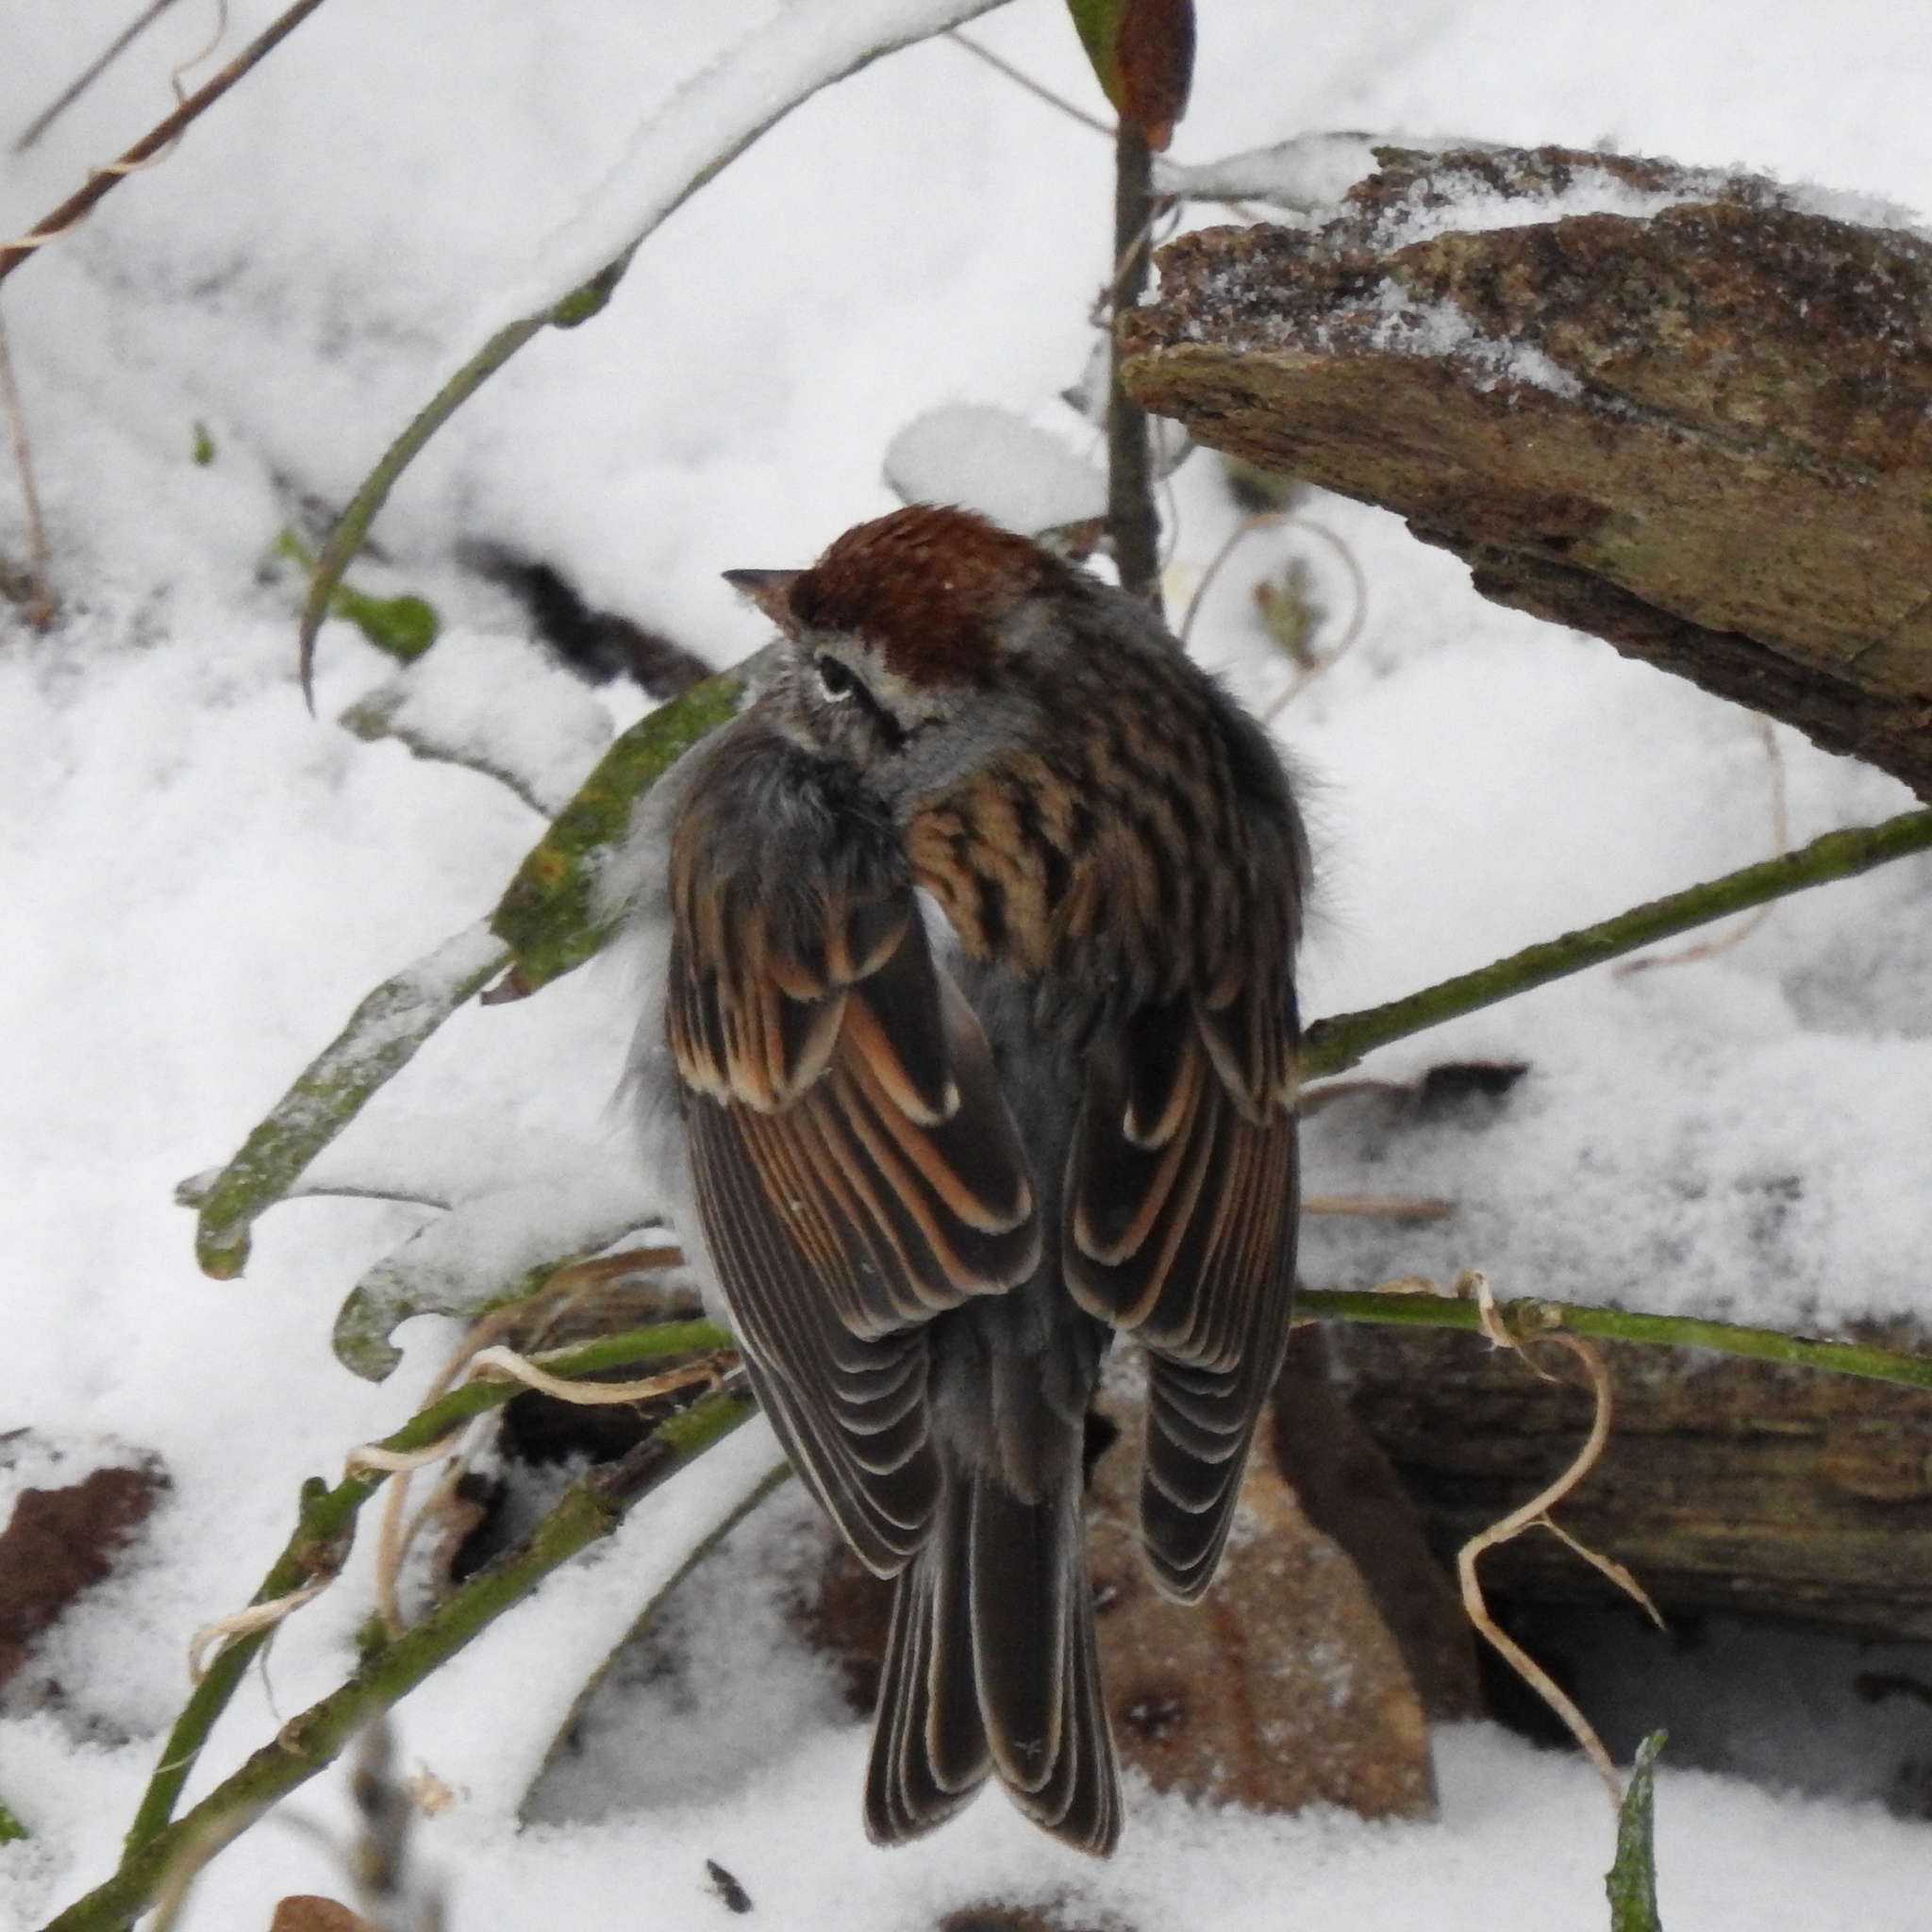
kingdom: Animalia
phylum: Chordata
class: Aves
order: Passeriformes
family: Passerellidae
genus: Spizella
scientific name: Spizella passerina
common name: Chipping sparrow
